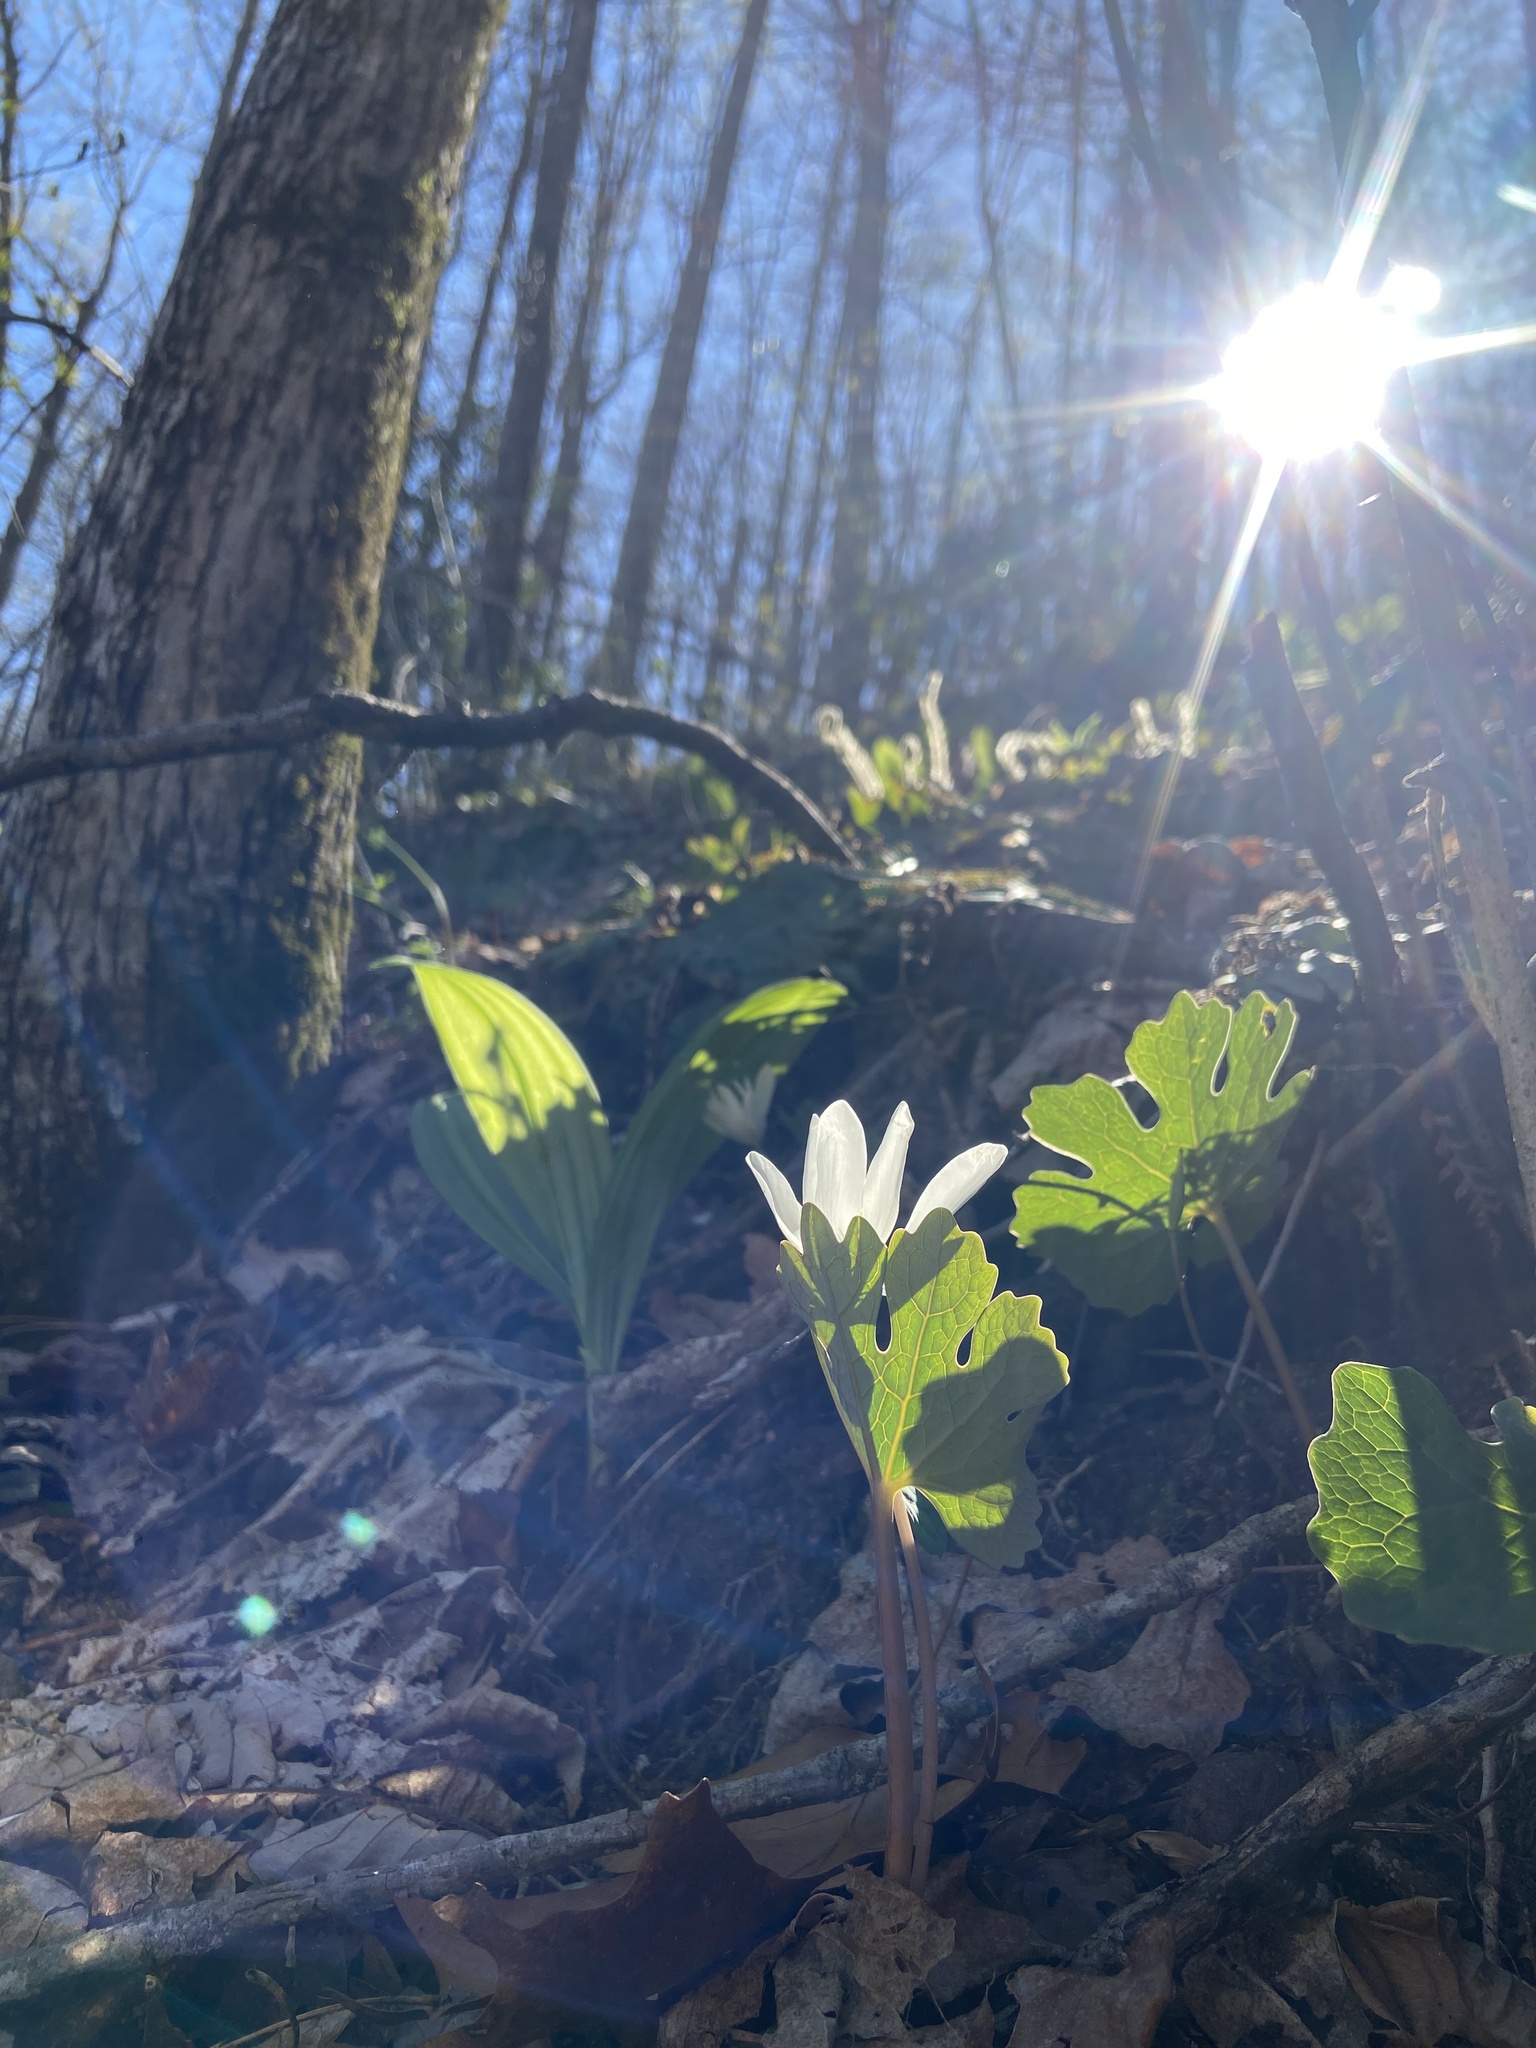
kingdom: Plantae
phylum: Tracheophyta
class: Magnoliopsida
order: Ranunculales
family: Papaveraceae
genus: Sanguinaria
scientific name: Sanguinaria canadensis
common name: Bloodroot
